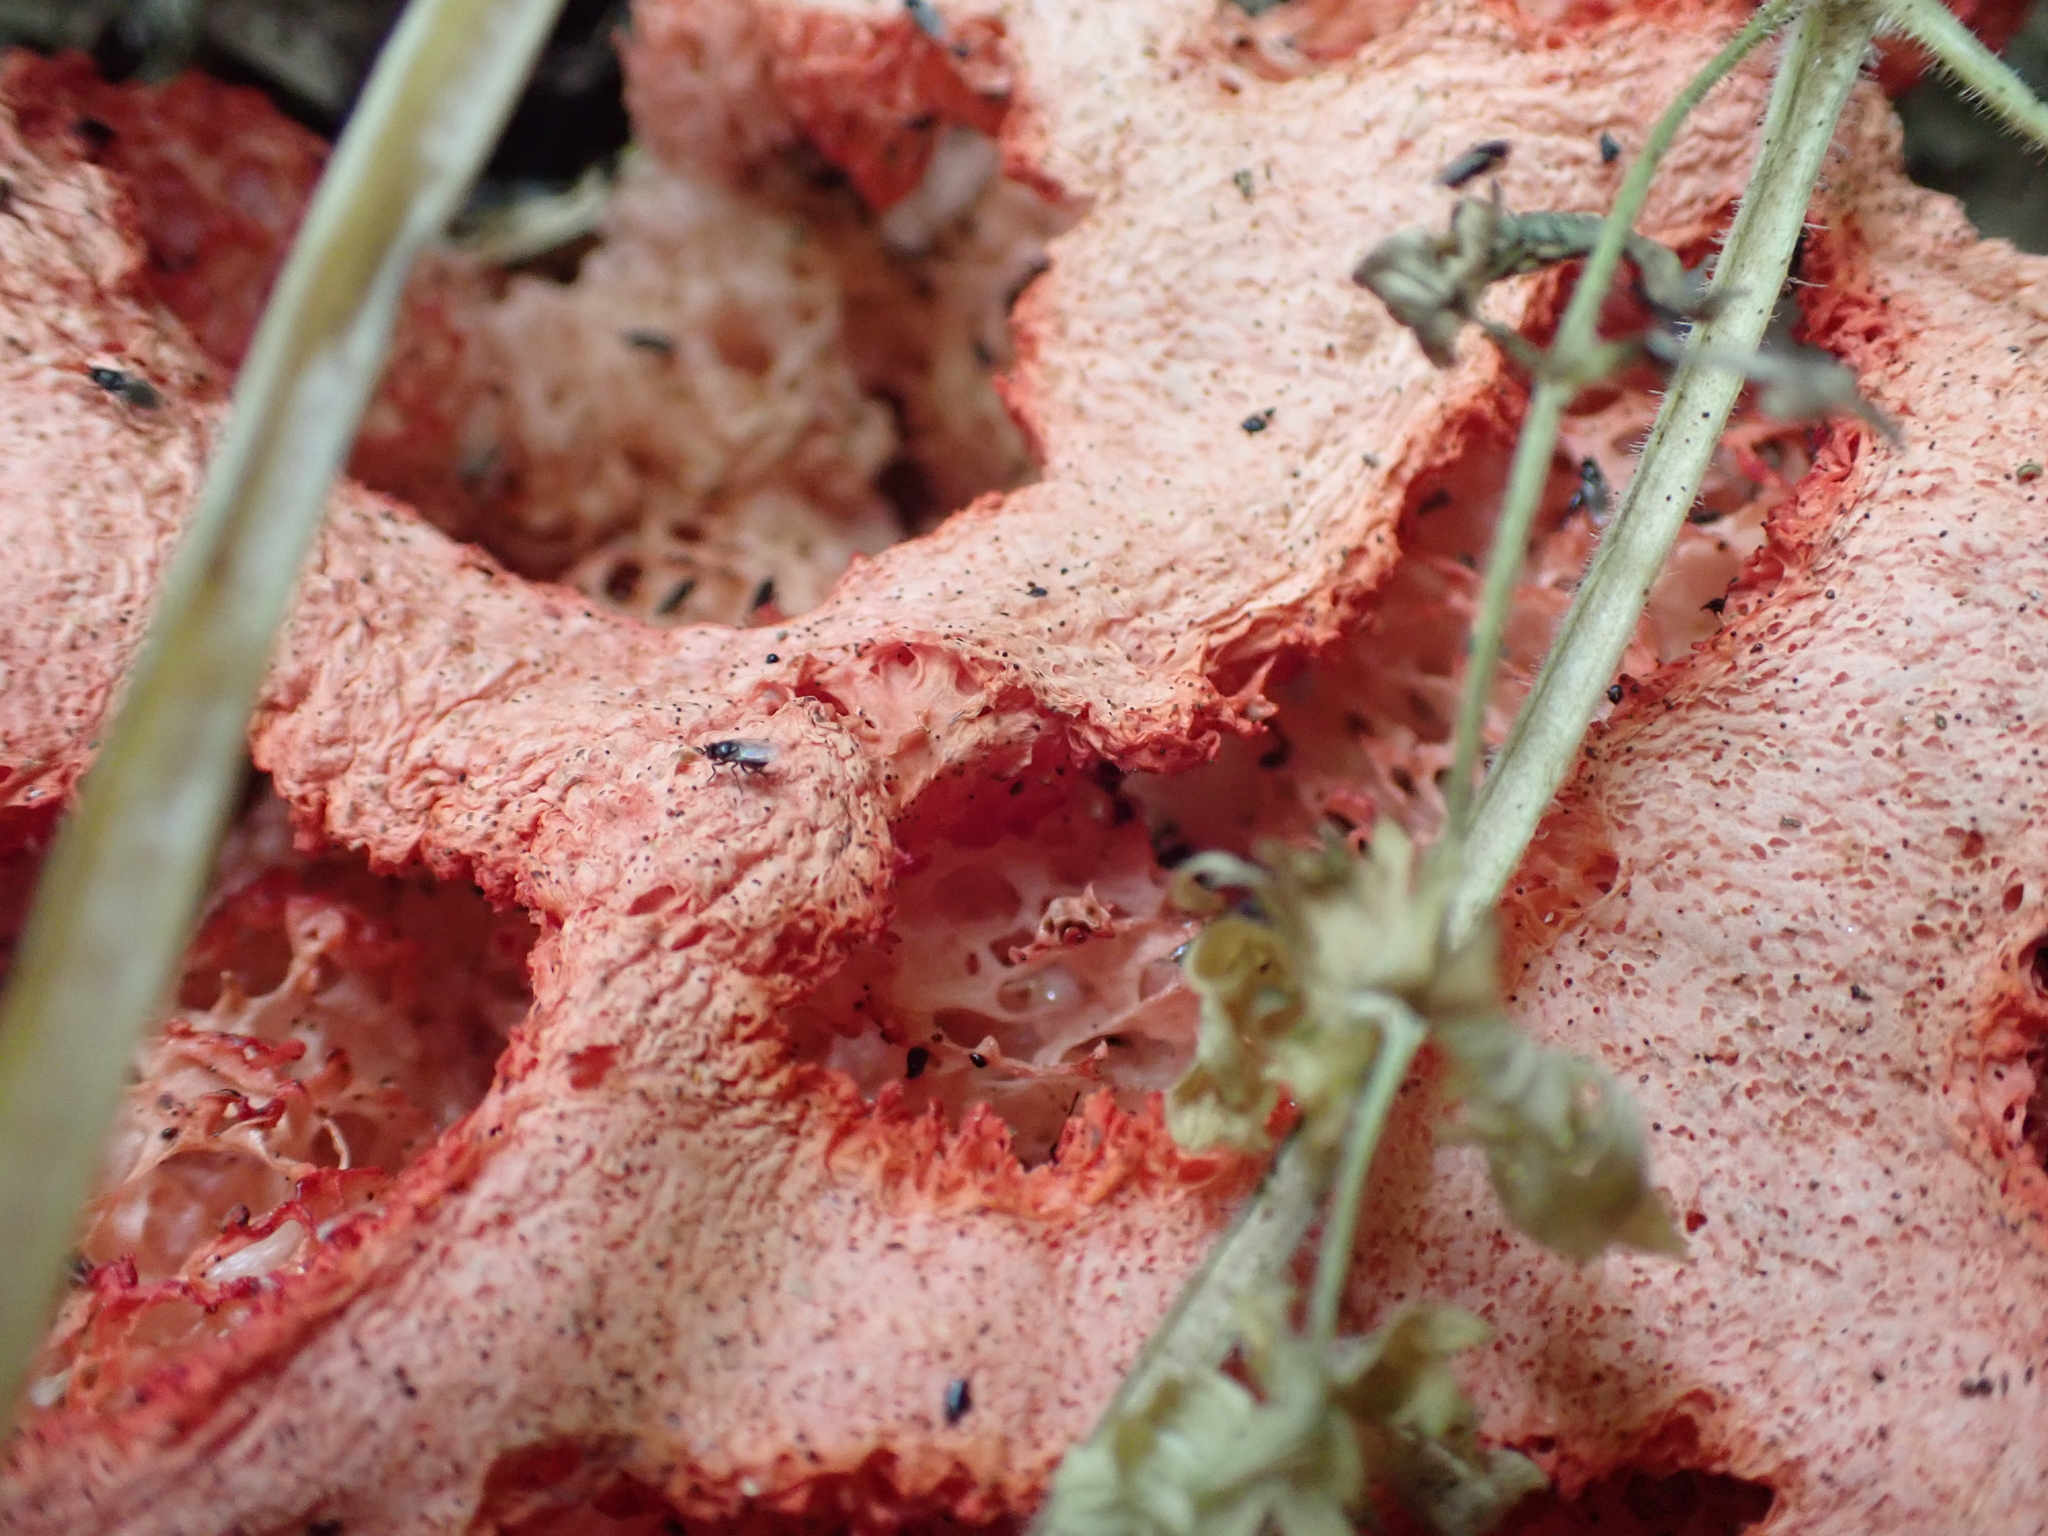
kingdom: Fungi
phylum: Basidiomycota
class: Agaricomycetes
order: Phallales
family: Phallaceae
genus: Clathrus
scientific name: Clathrus ruber
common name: Red cage
